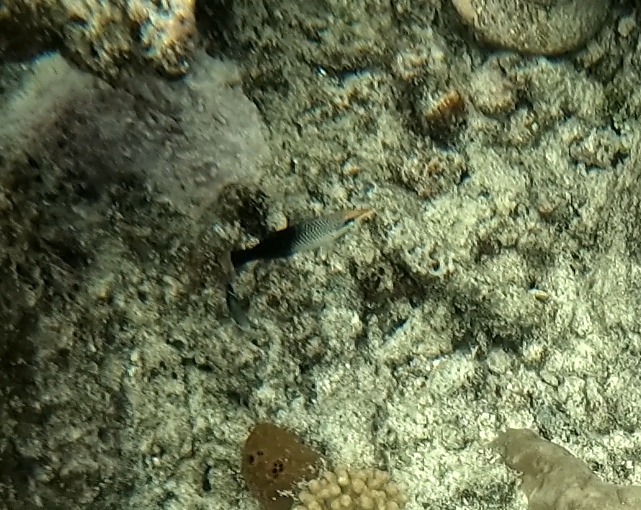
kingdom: Animalia
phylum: Chordata
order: Perciformes
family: Labridae
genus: Gomphosus
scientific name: Gomphosus varius
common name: Bird wrasse
